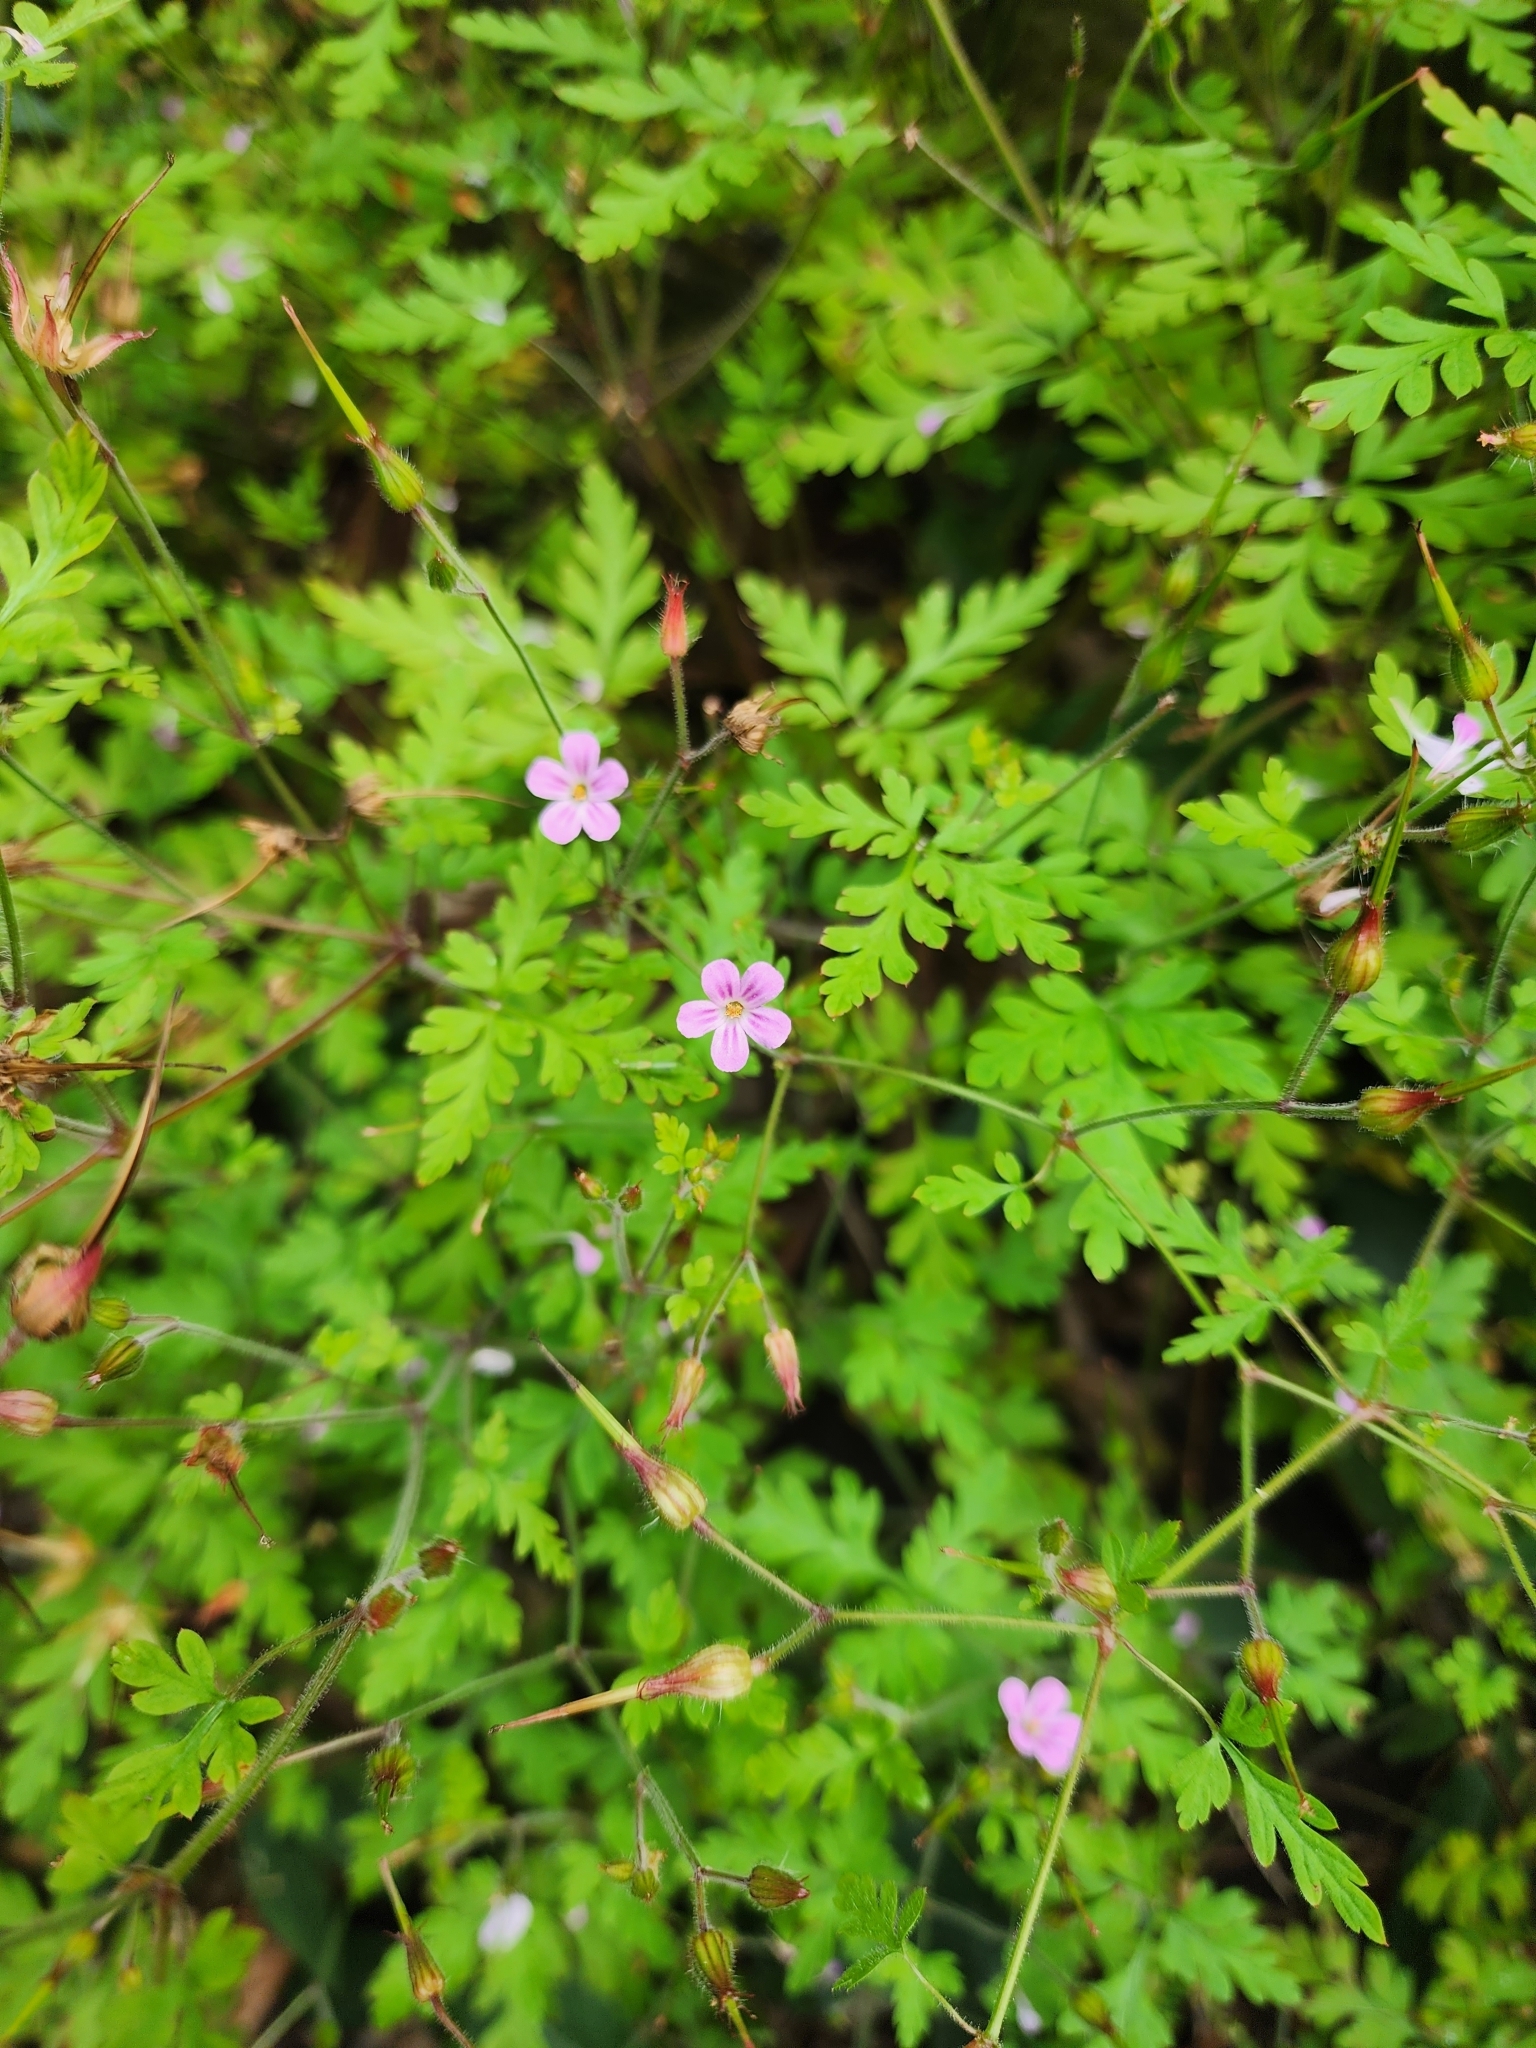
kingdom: Plantae
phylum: Tracheophyta
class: Magnoliopsida
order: Geraniales
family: Geraniaceae
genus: Geranium
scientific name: Geranium robertianum
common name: Herb-robert
